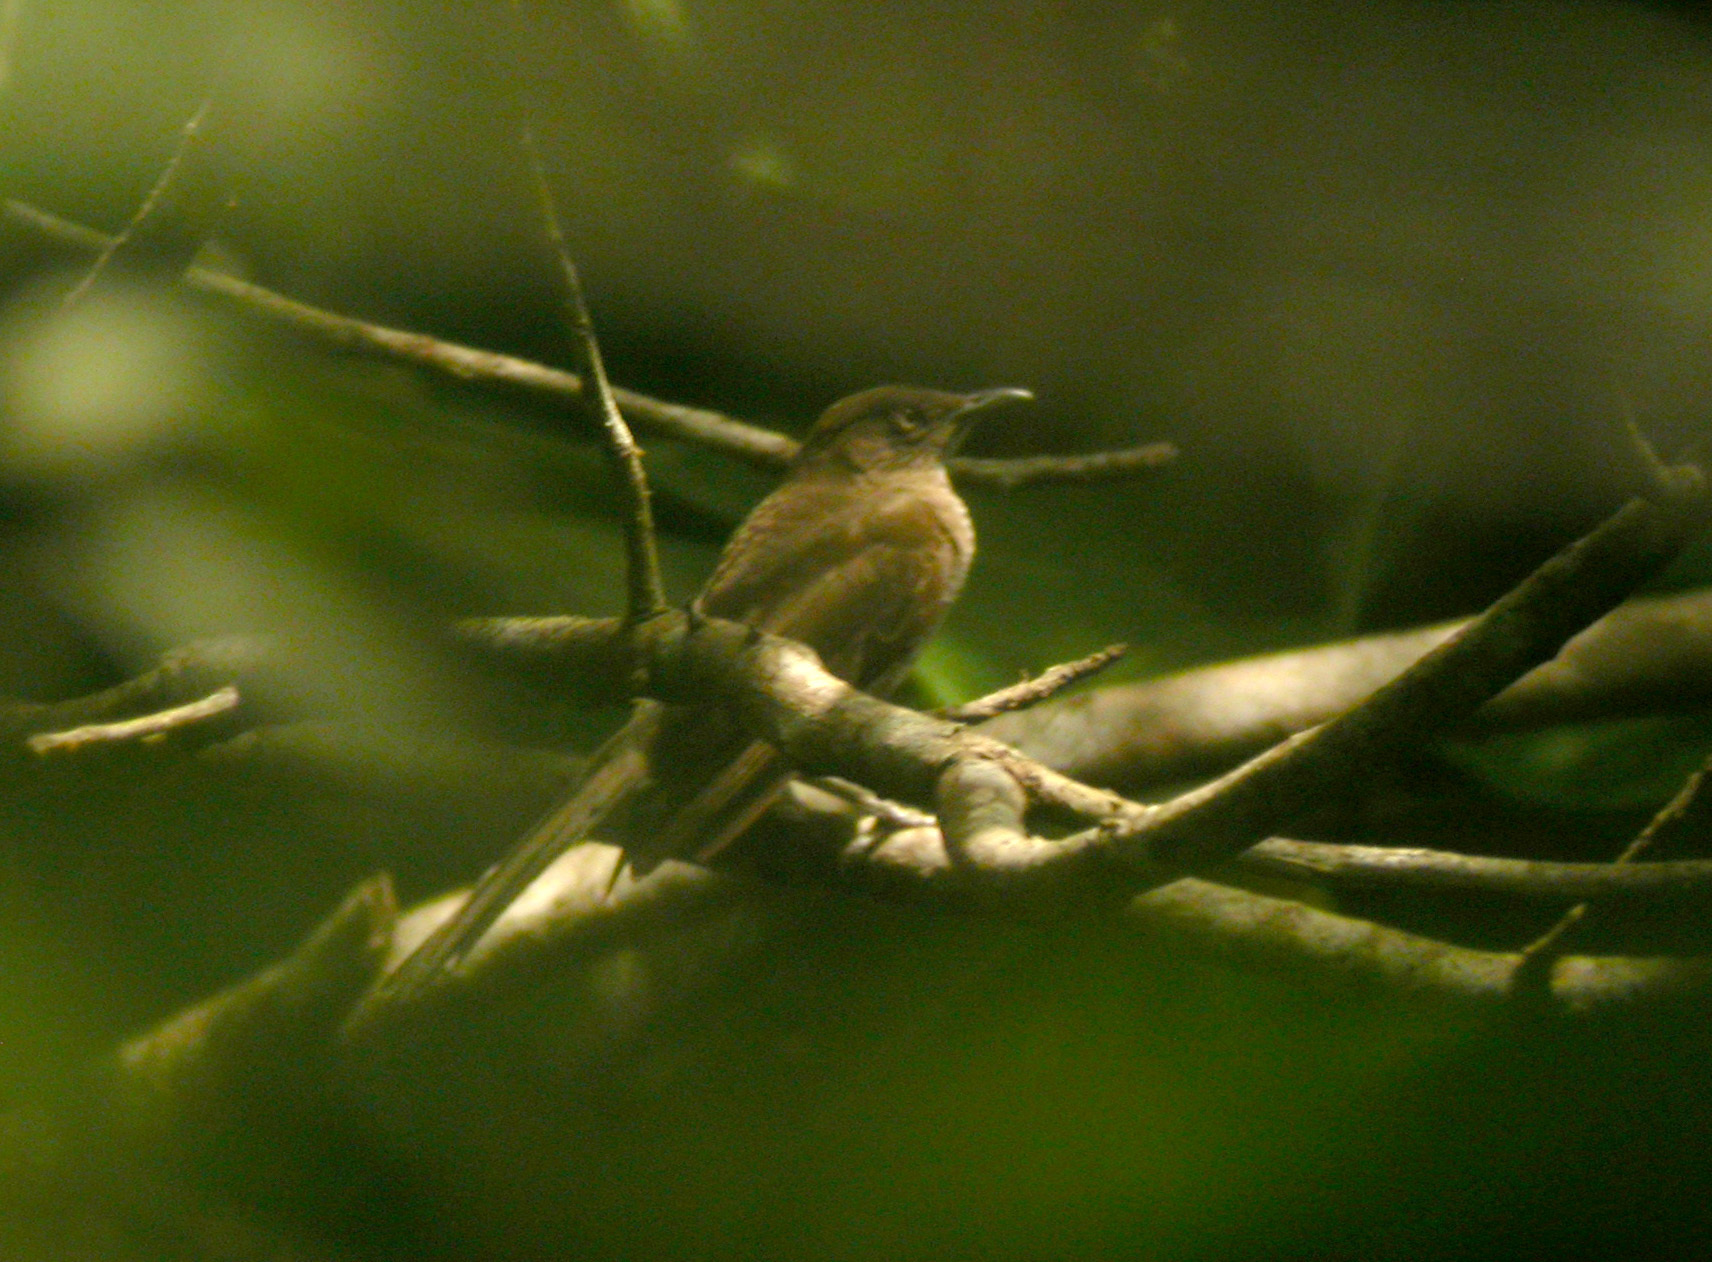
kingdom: Animalia
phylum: Chordata
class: Aves
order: Passeriformes
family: Mimidae
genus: Cinclocerthia
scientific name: Cinclocerthia ruficauda
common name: Brown trembler
